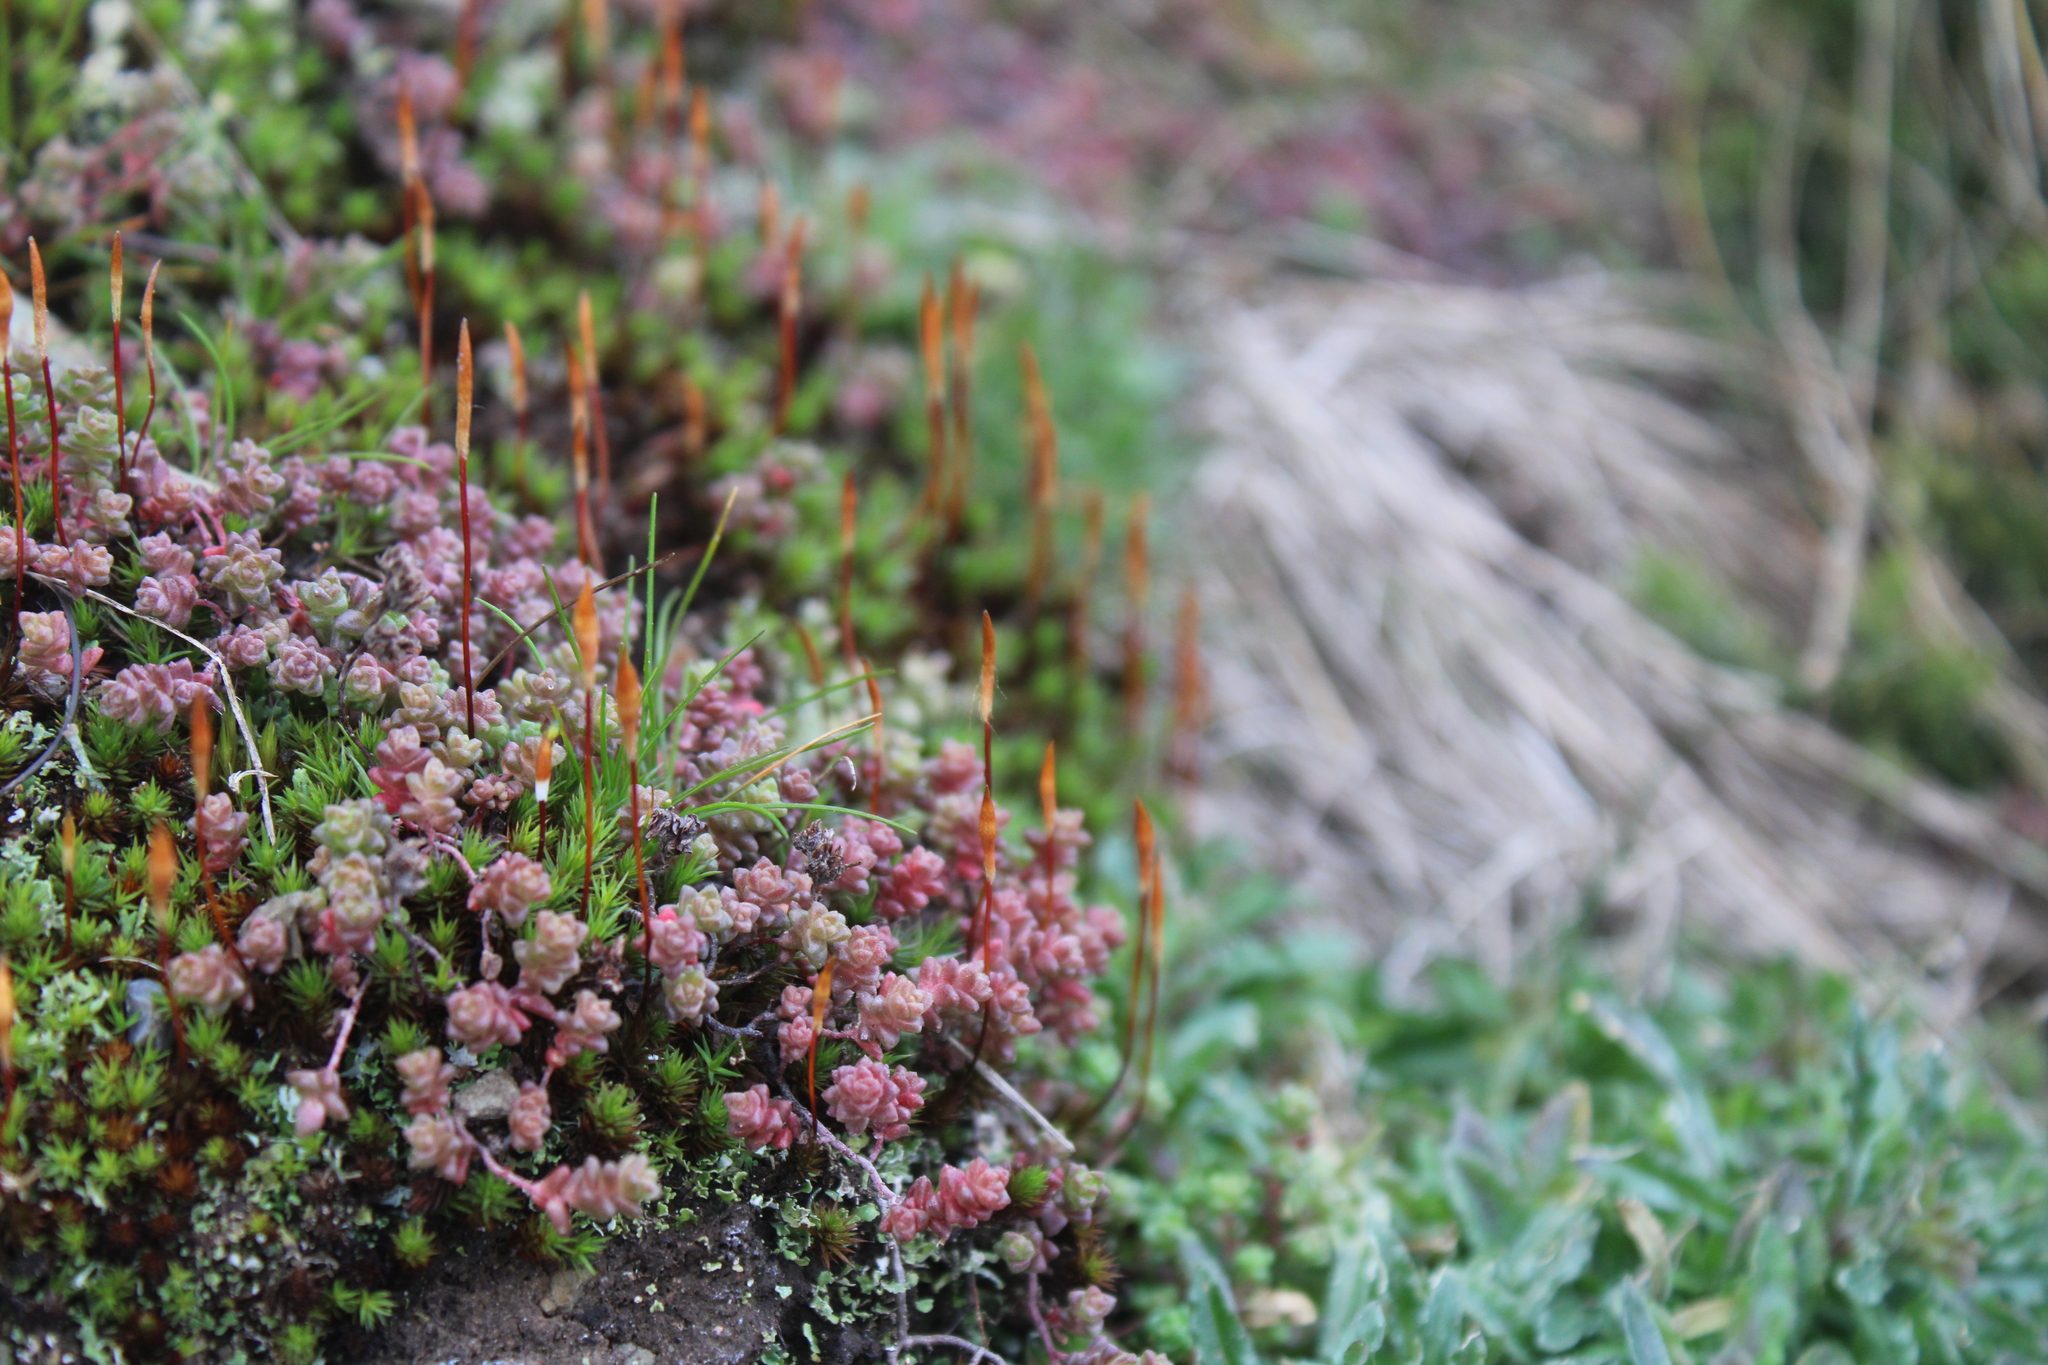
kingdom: Plantae
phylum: Tracheophyta
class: Magnoliopsida
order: Saxifragales
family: Crassulaceae
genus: Sedum
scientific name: Sedum anglicum
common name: English stonecrop
